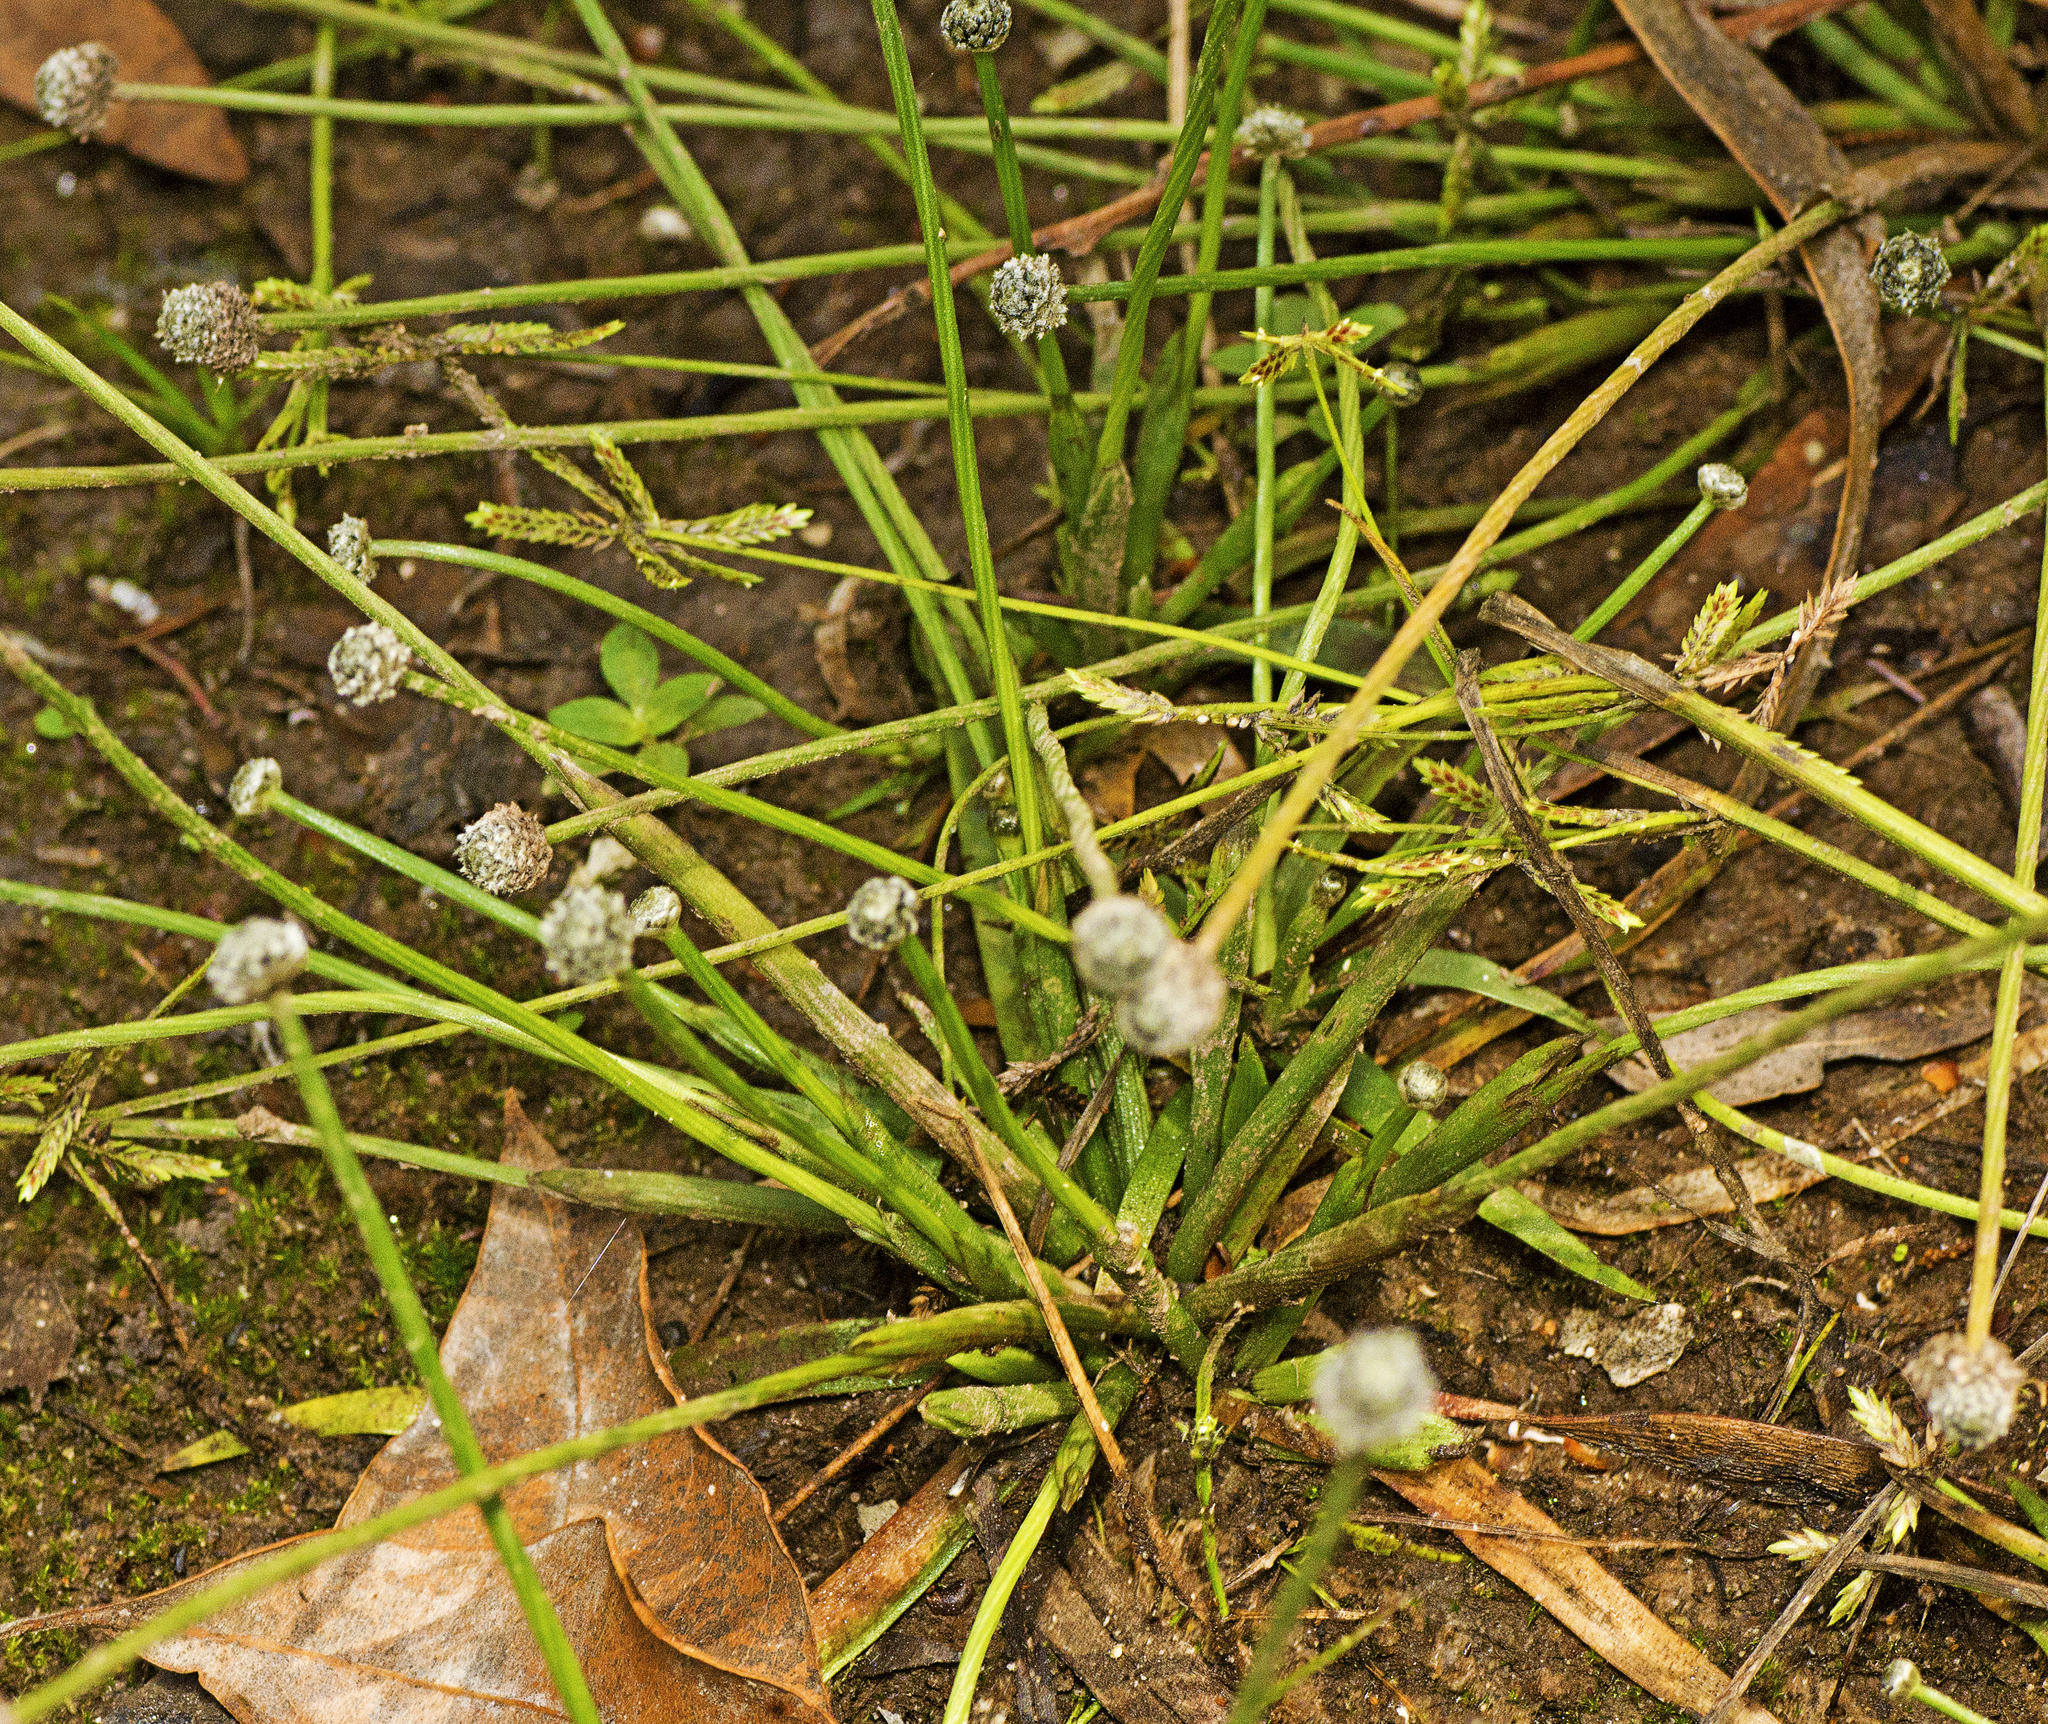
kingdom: Plantae
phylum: Tracheophyta
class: Liliopsida
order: Poales
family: Eriocaulaceae
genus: Eriocaulon
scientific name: Eriocaulon scariosum
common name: Rough pipewort
